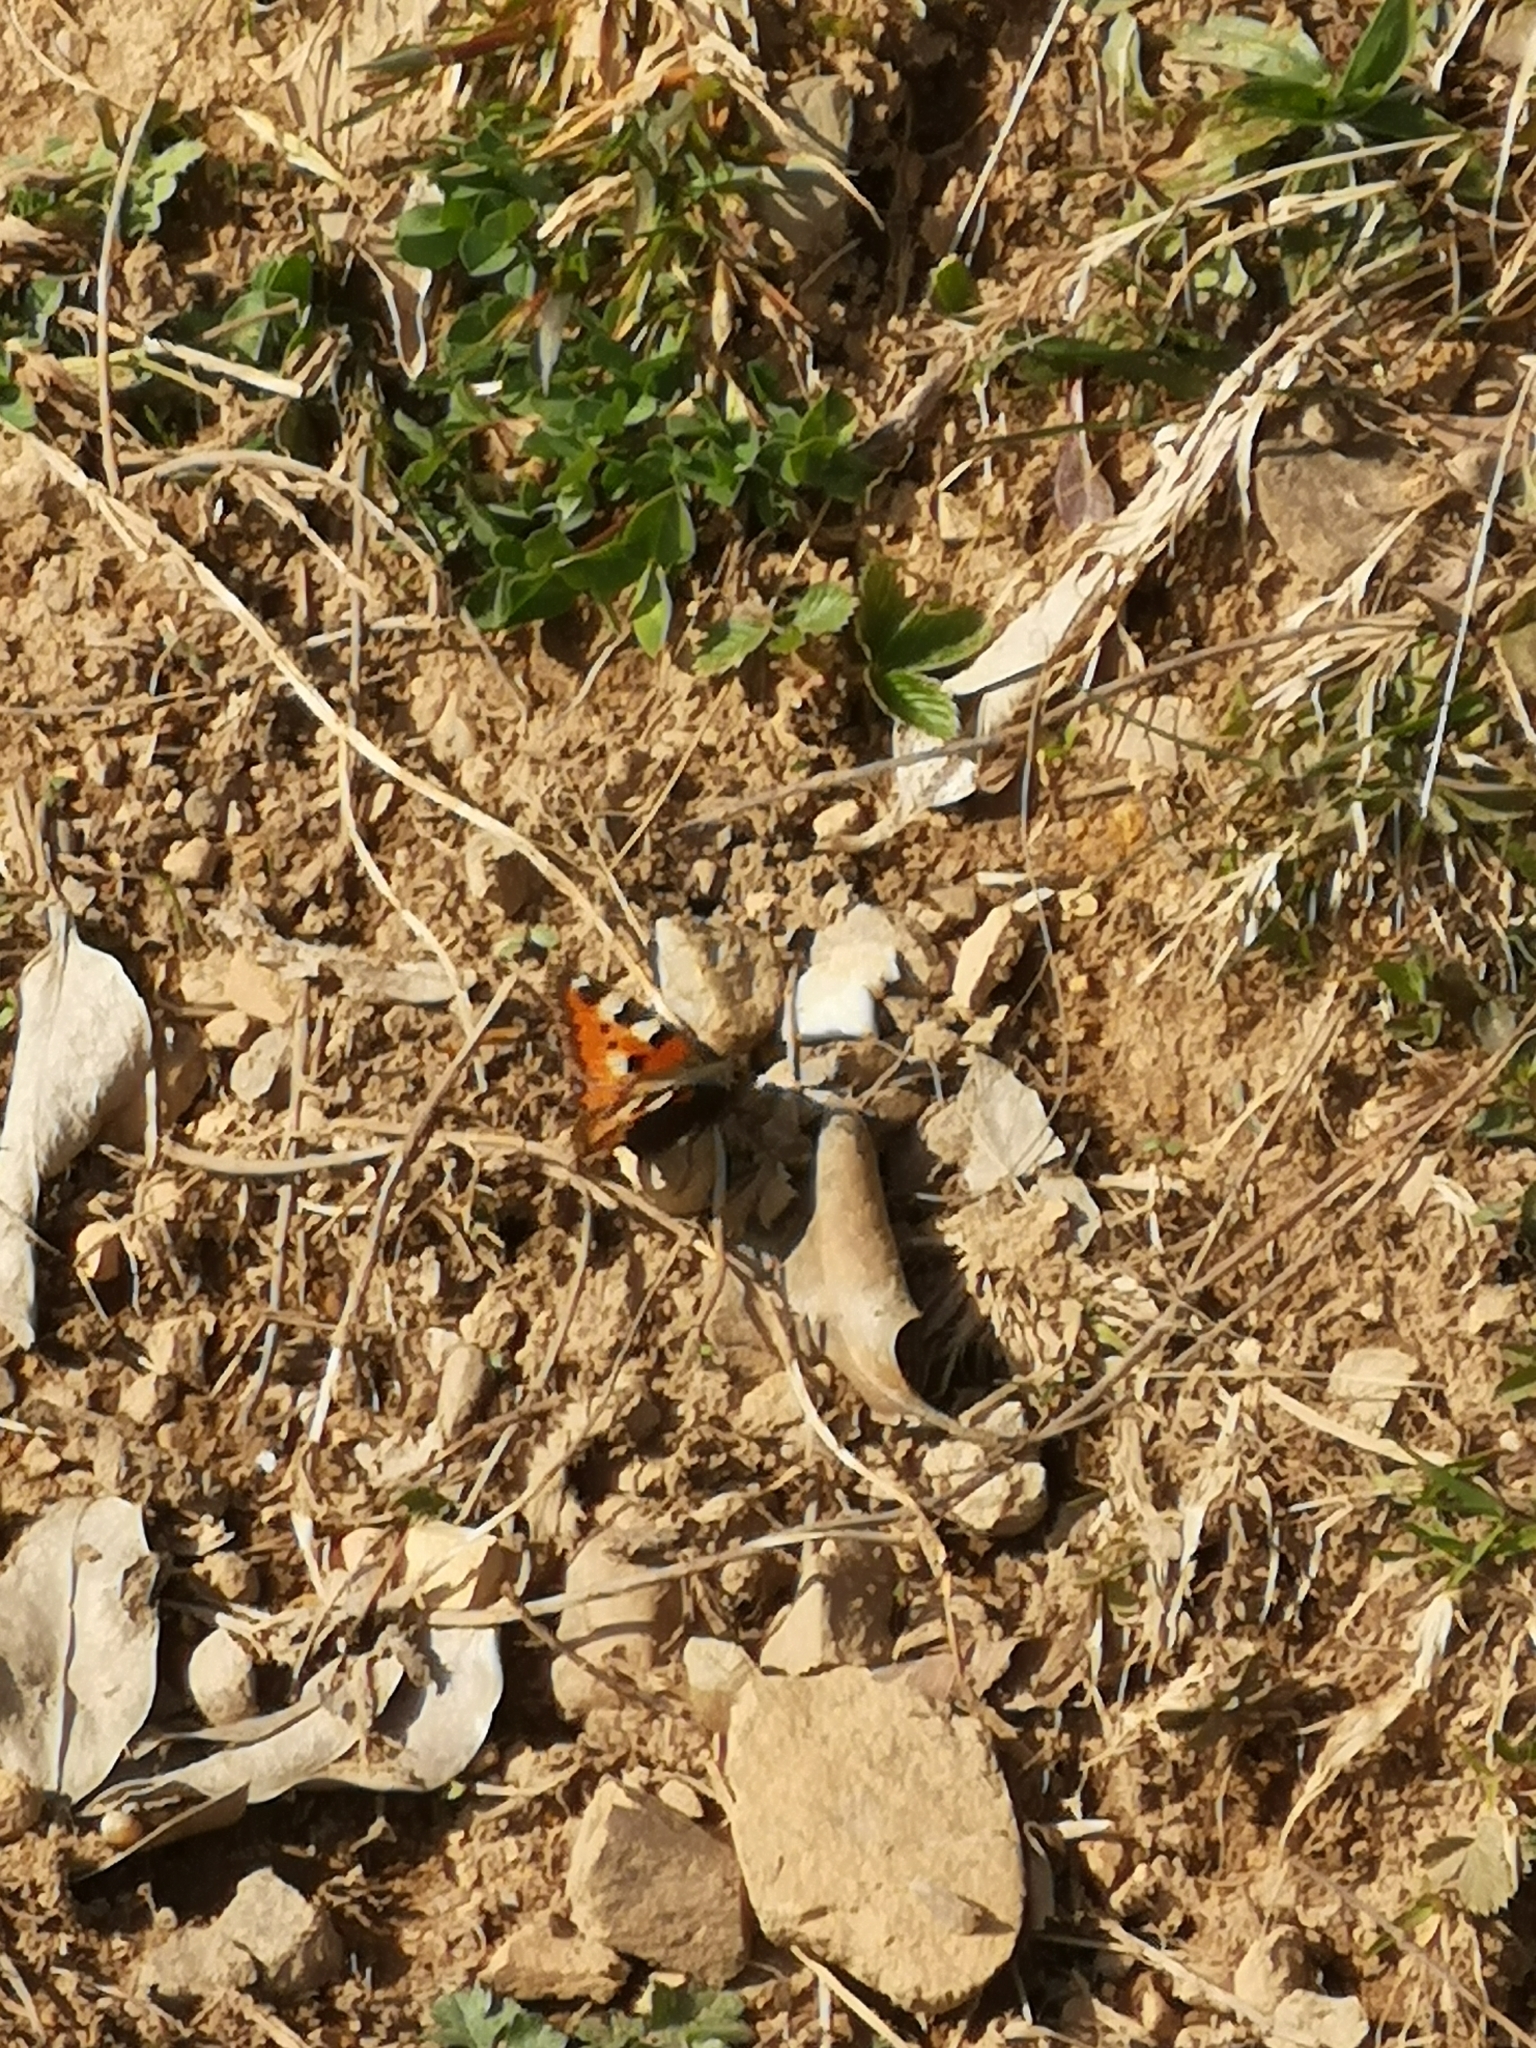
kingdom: Animalia
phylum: Arthropoda
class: Insecta
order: Lepidoptera
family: Nymphalidae
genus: Aglais
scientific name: Aglais urticae
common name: Small tortoiseshell
